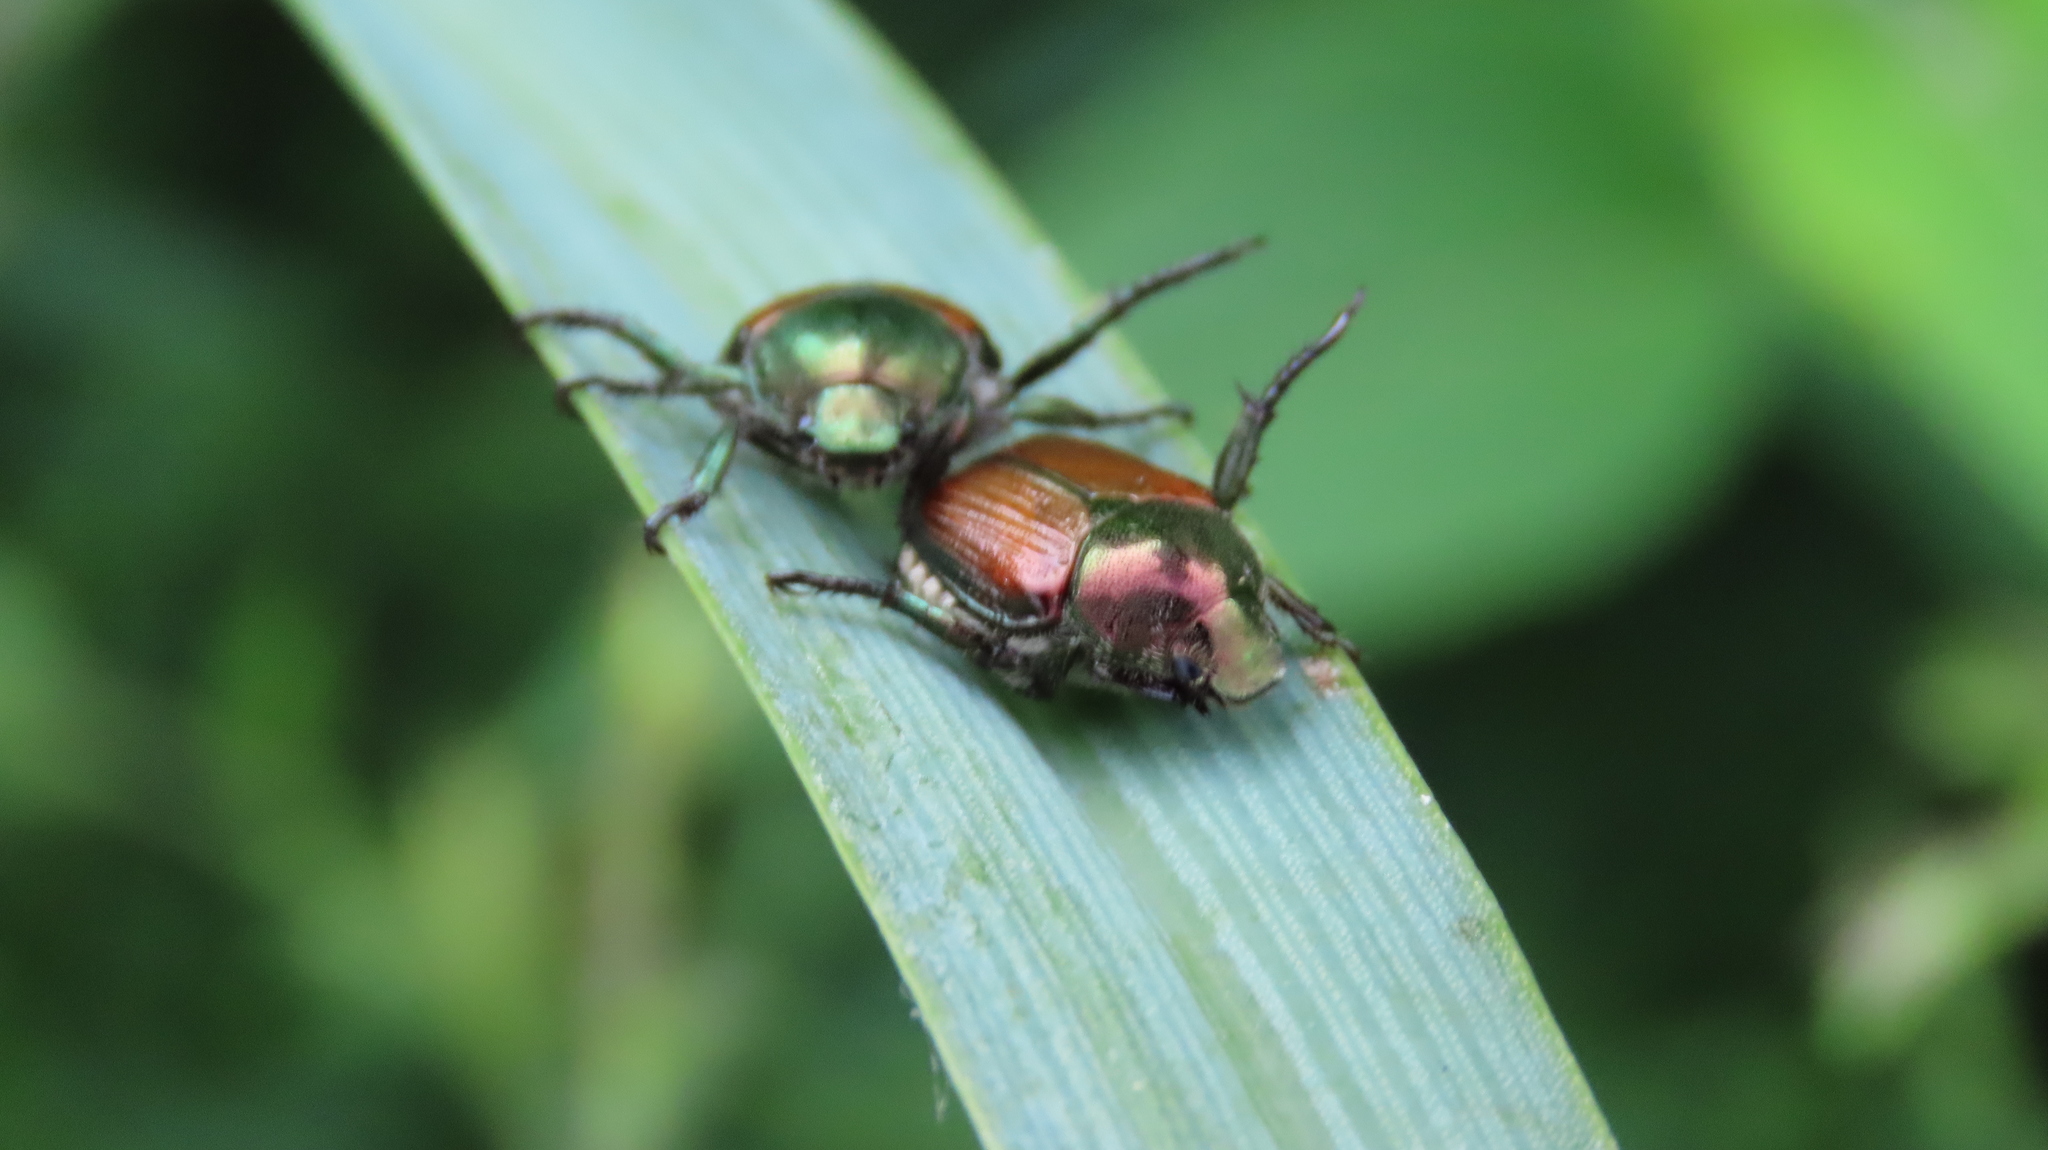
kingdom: Animalia
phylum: Arthropoda
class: Insecta
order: Coleoptera
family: Scarabaeidae
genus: Popillia
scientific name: Popillia japonica
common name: Japanese beetle
